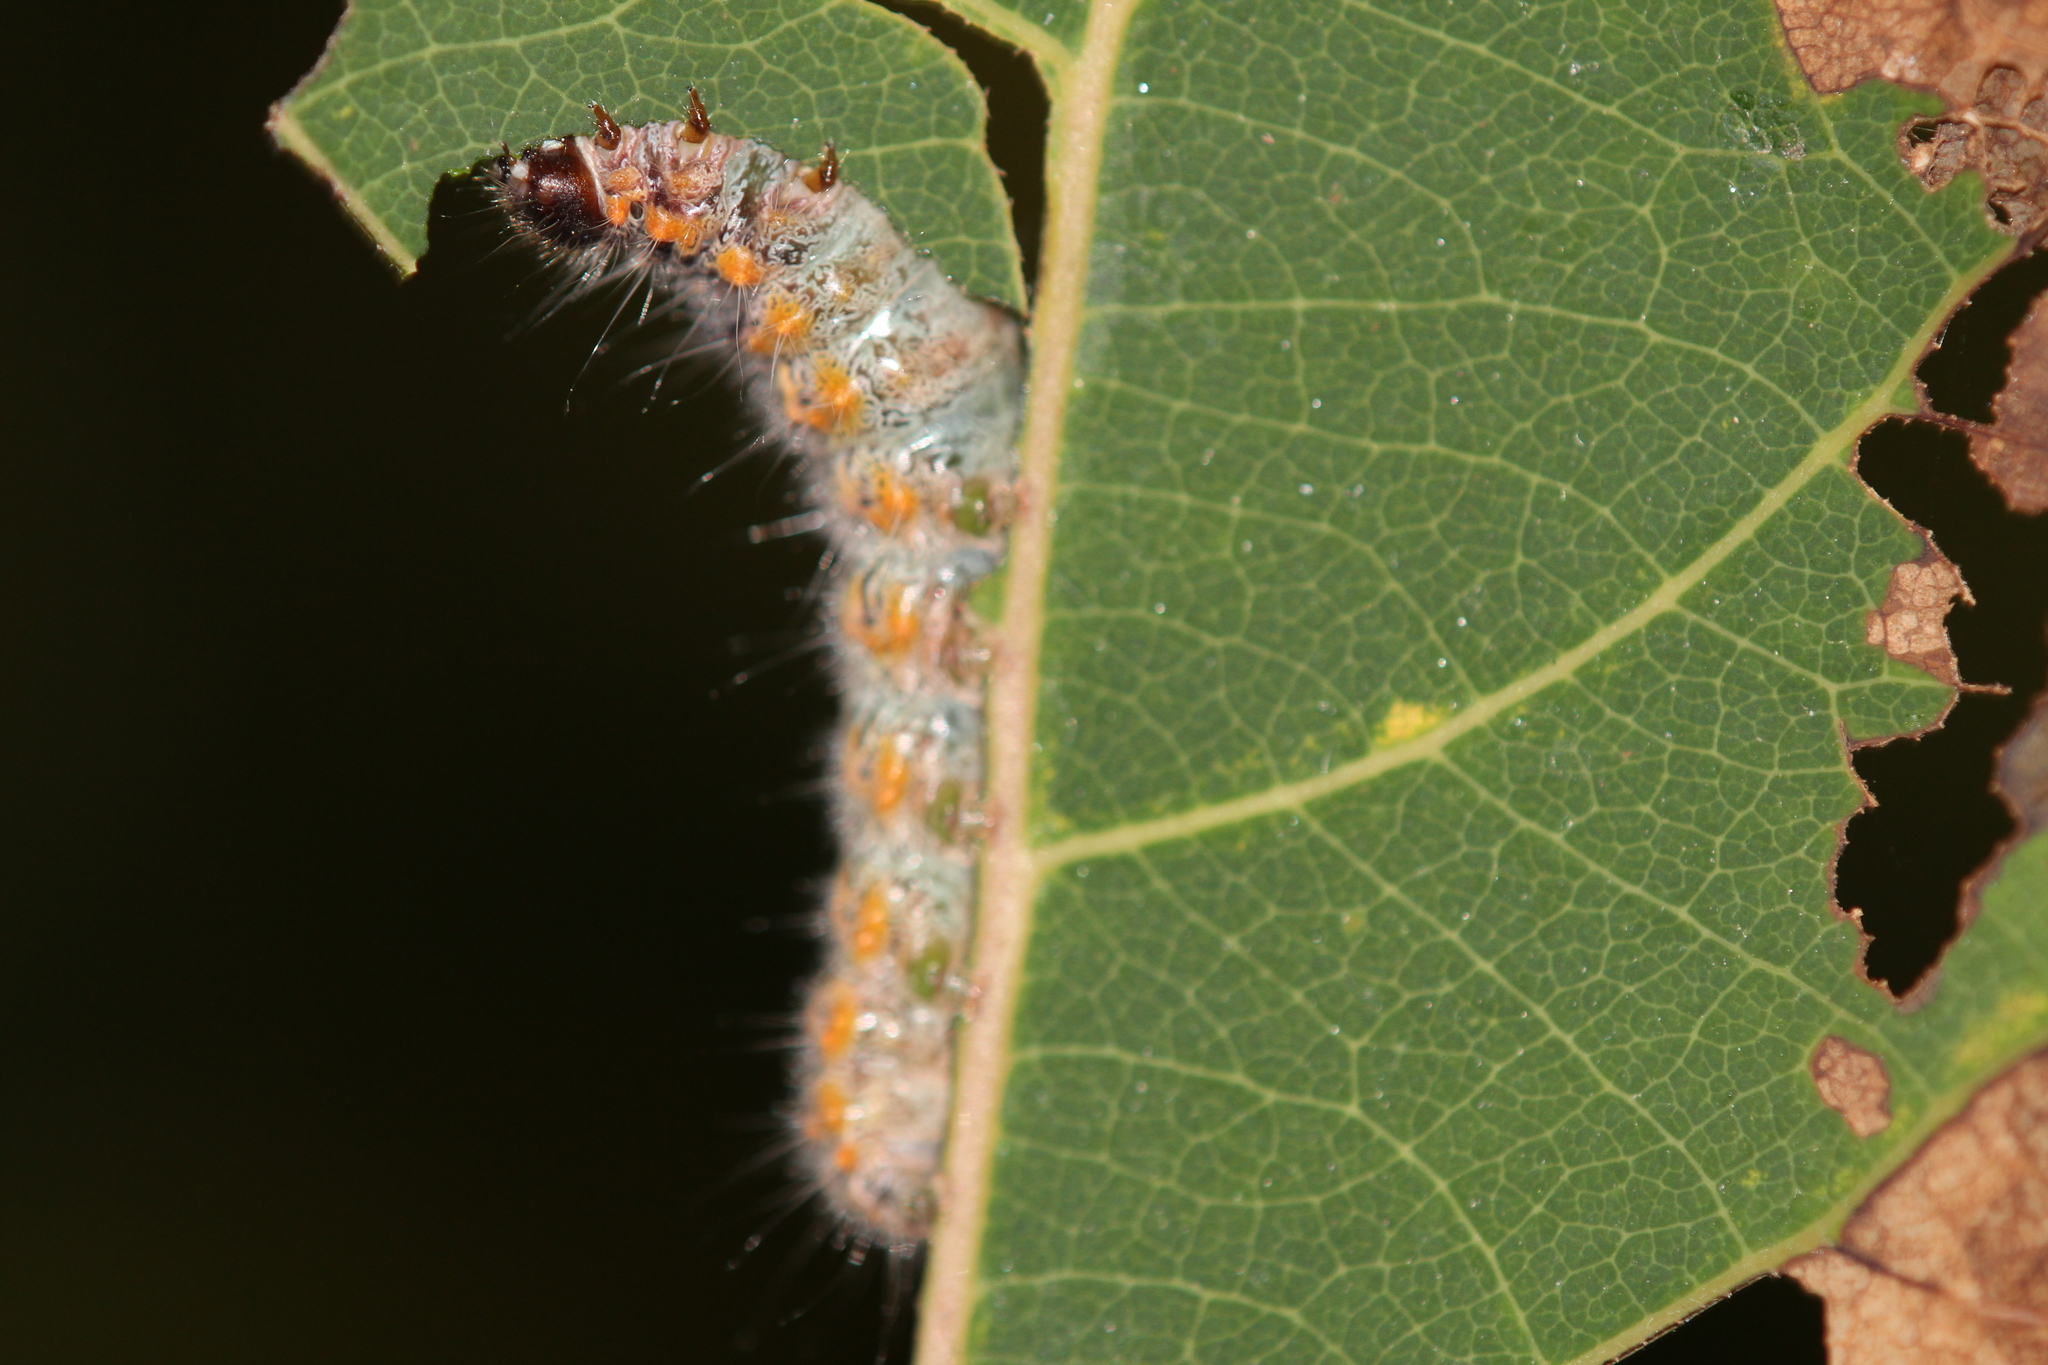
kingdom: Animalia
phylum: Arthropoda
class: Insecta
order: Lepidoptera
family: Notodontidae
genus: Clostera
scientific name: Clostera albosigma
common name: Sigmoid prominent
